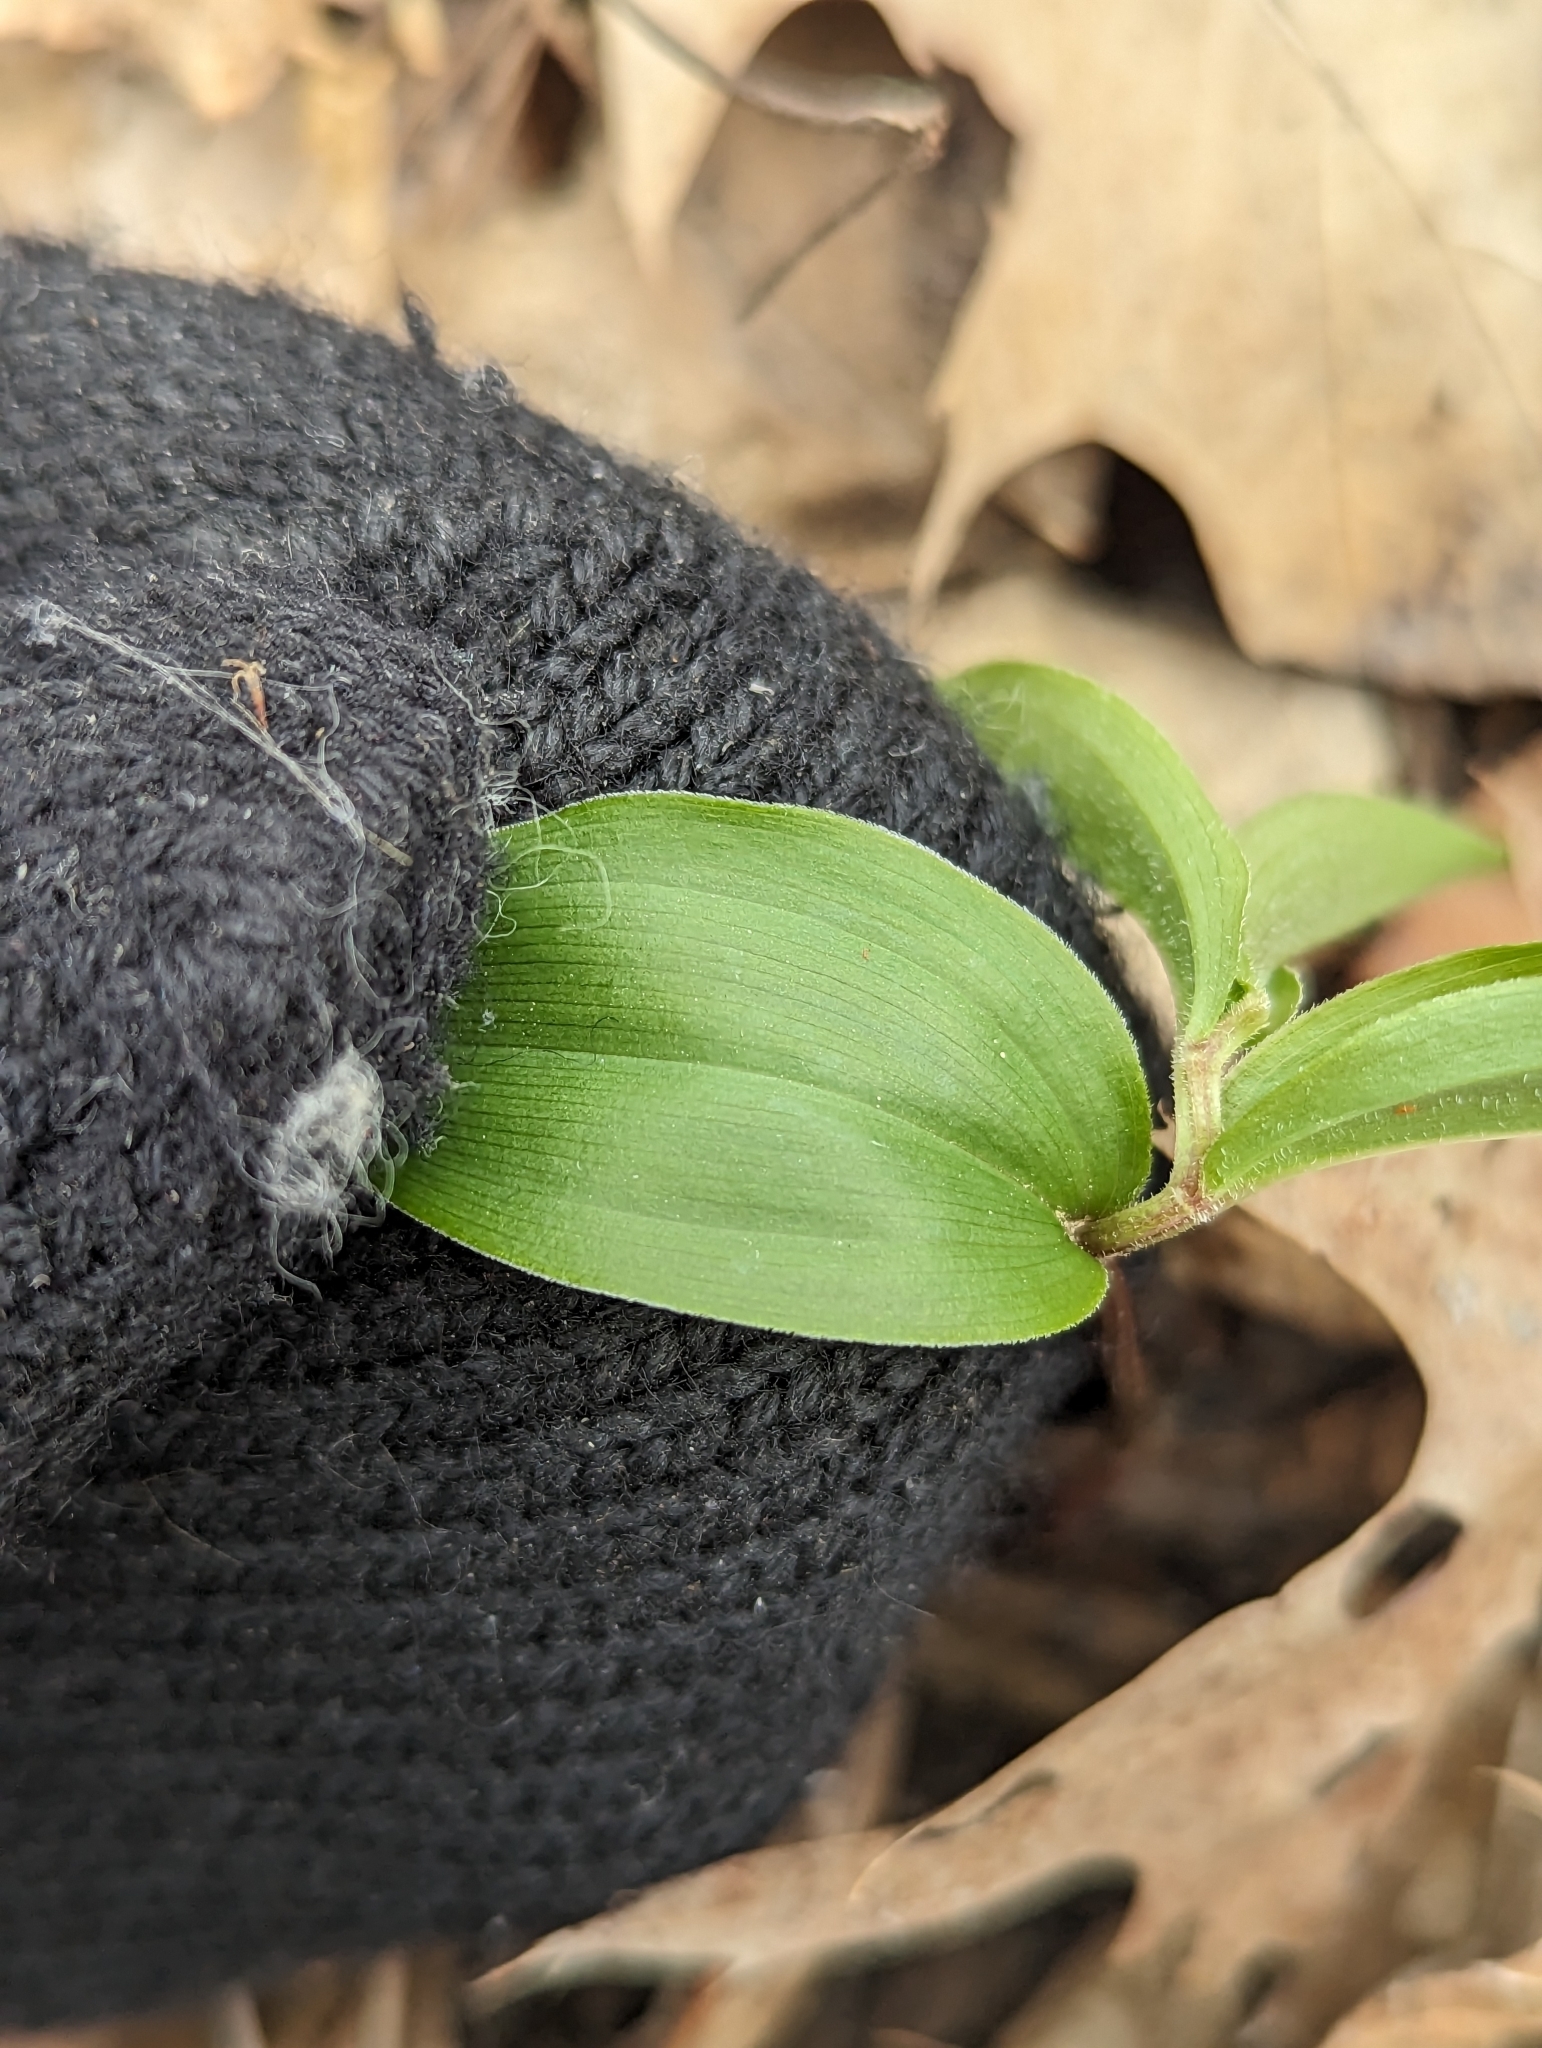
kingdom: Plantae
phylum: Tracheophyta
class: Liliopsida
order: Asparagales
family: Asparagaceae
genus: Maianthemum
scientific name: Maianthemum racemosum
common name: False spikenard
